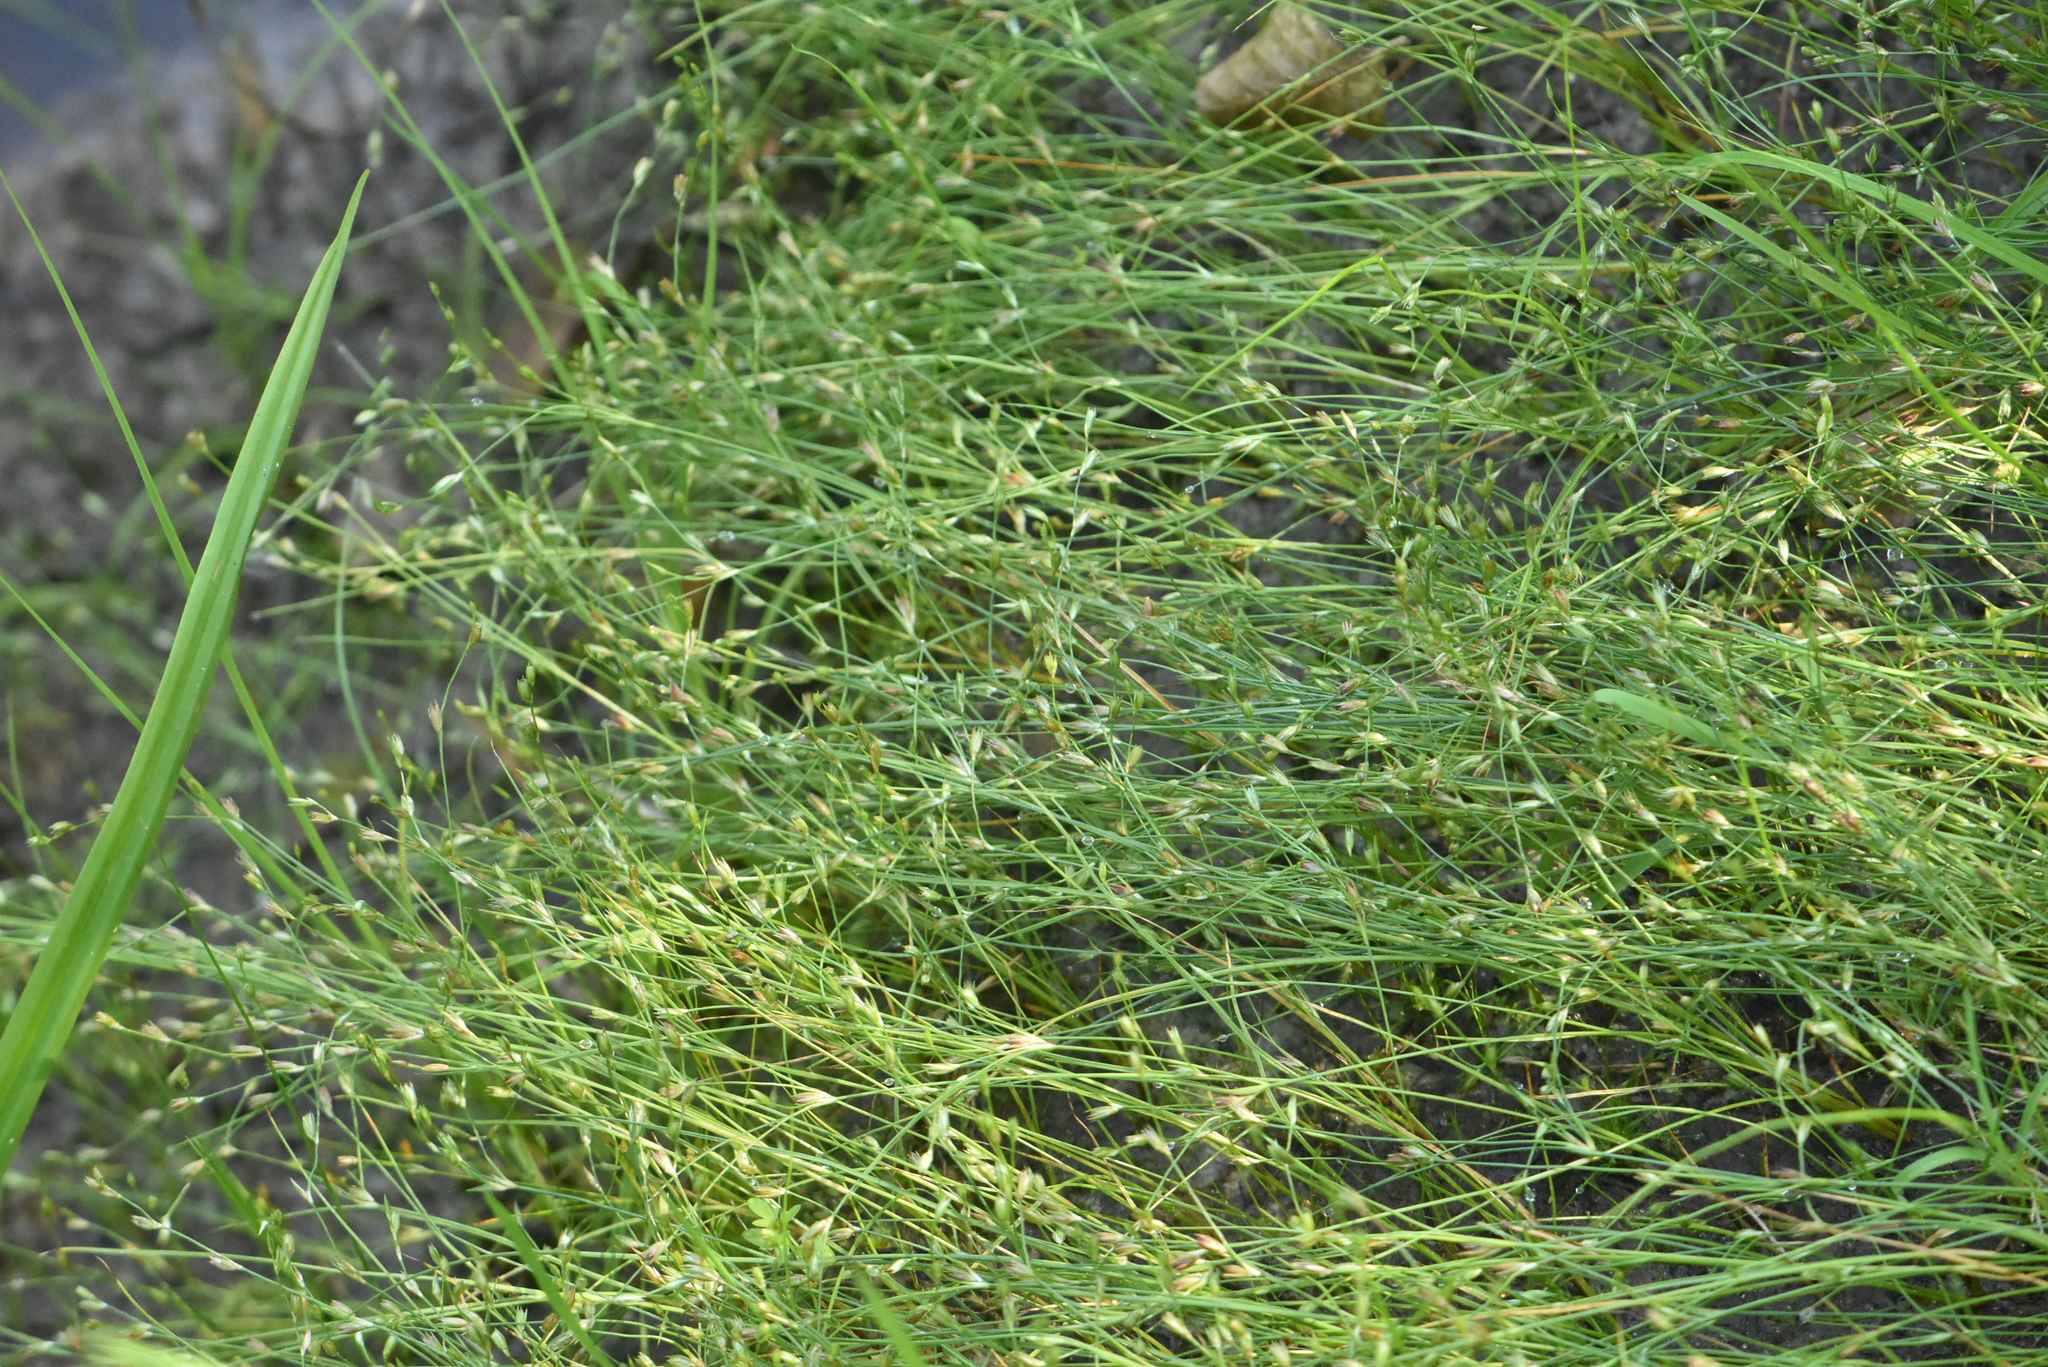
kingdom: Plantae
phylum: Tracheophyta
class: Liliopsida
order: Poales
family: Juncaceae
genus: Juncus
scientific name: Juncus bufonius
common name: Toad rush
